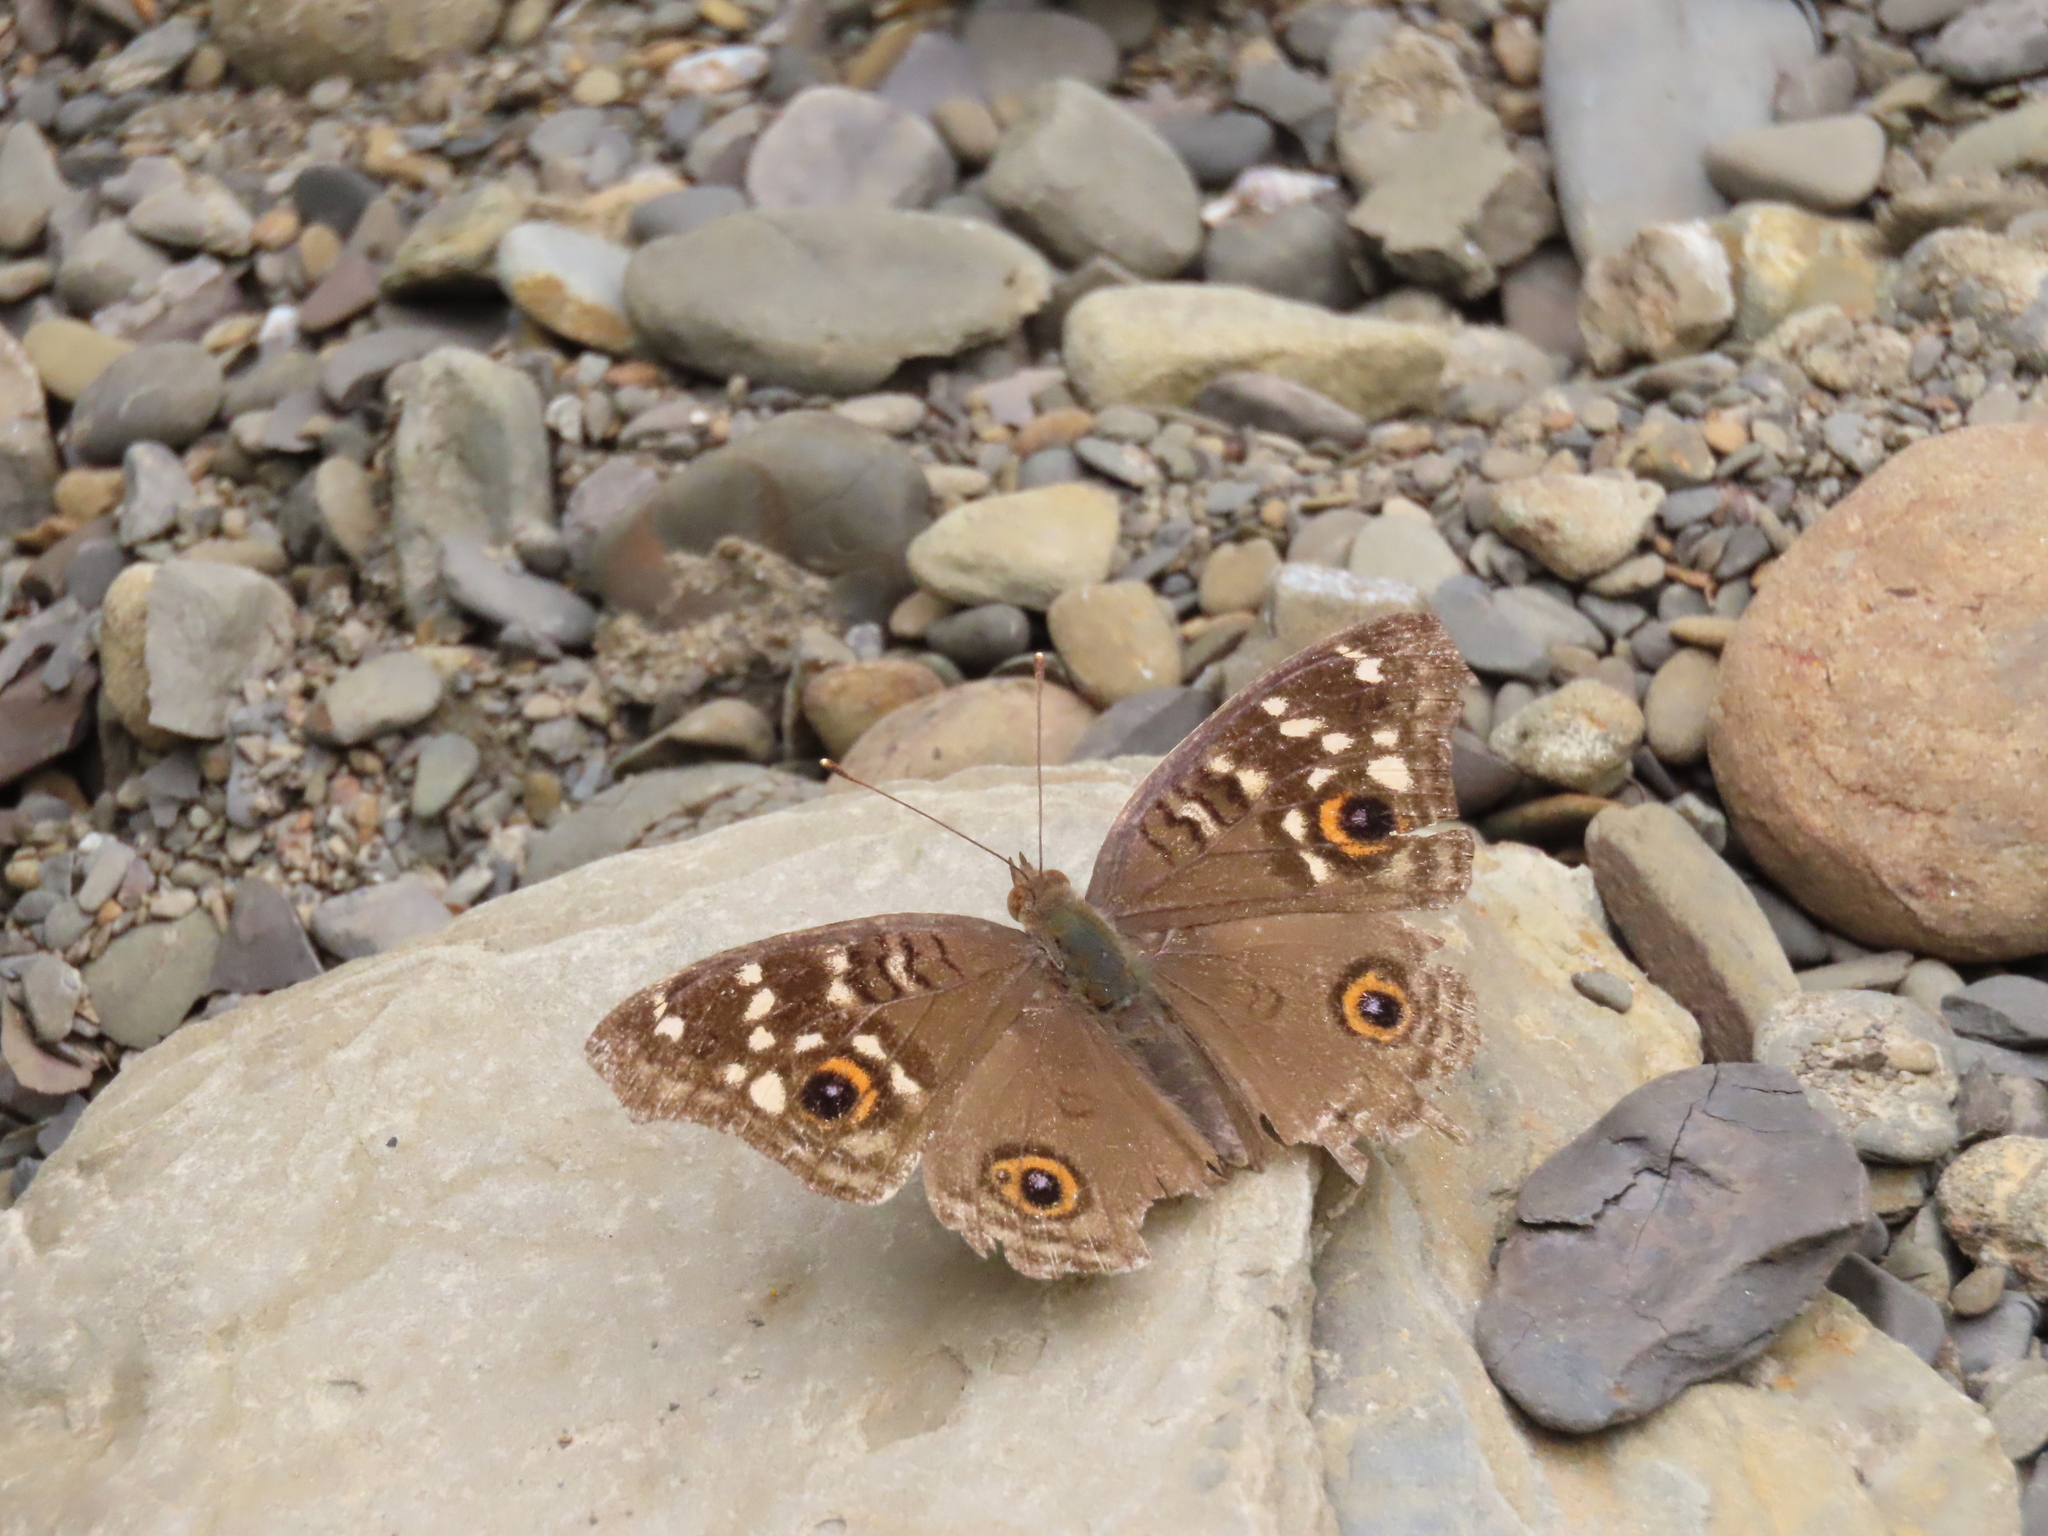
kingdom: Animalia
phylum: Arthropoda
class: Insecta
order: Lepidoptera
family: Nymphalidae
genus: Junonia
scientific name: Junonia lemonias
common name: Lemon pansy
